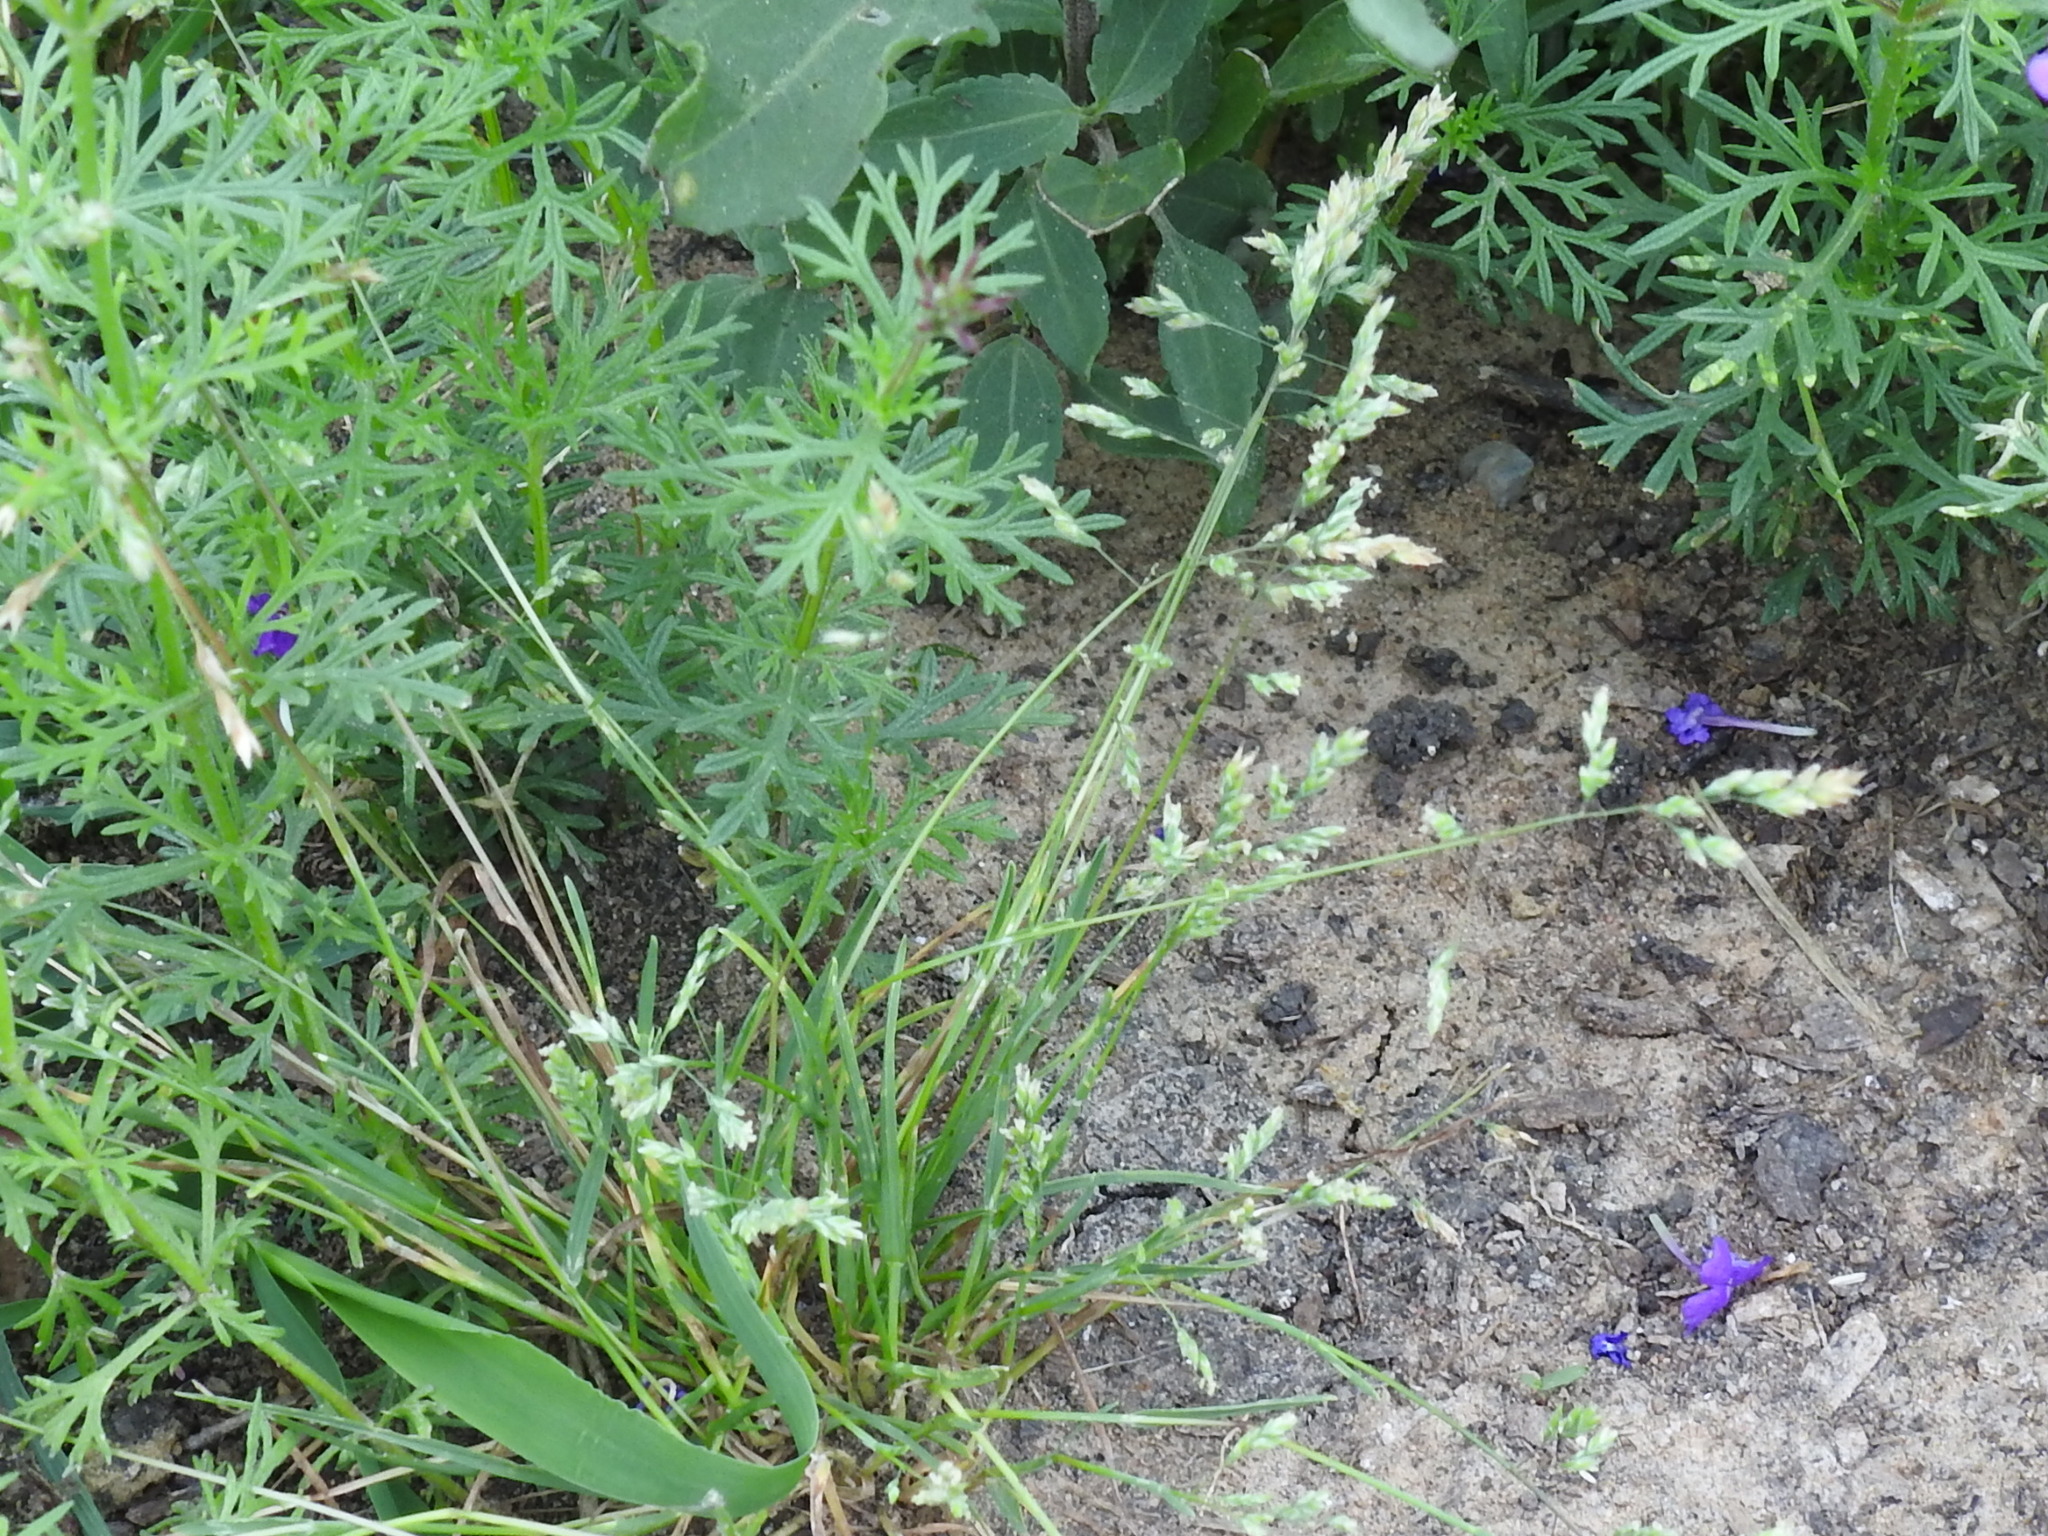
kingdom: Plantae
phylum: Tracheophyta
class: Liliopsida
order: Poales
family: Poaceae
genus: Poa
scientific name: Poa annua
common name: Annual bluegrass
